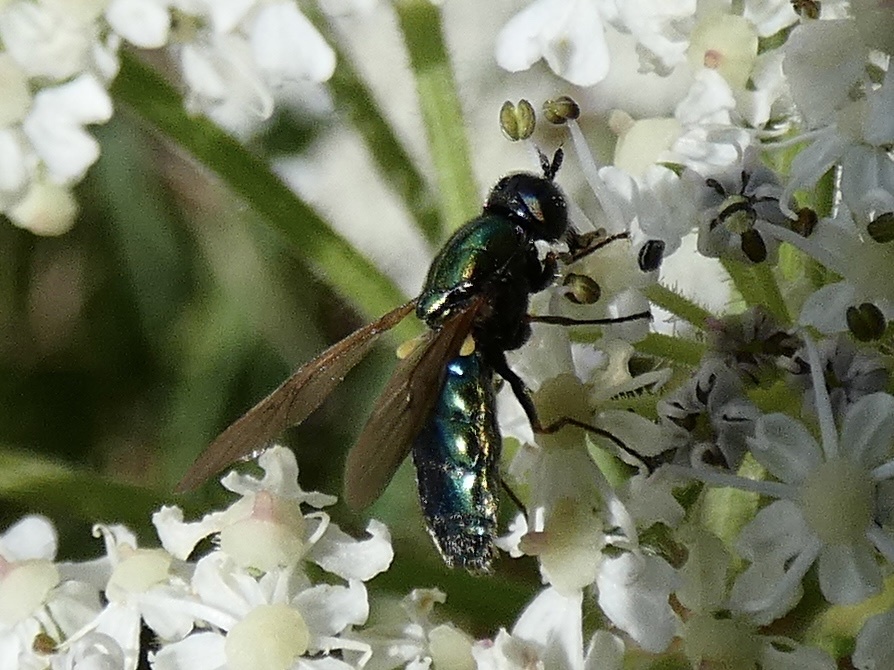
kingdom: Animalia
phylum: Arthropoda
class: Insecta
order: Diptera
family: Stratiomyidae
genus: Chloromyia
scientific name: Chloromyia formosa
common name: Soldier fly
